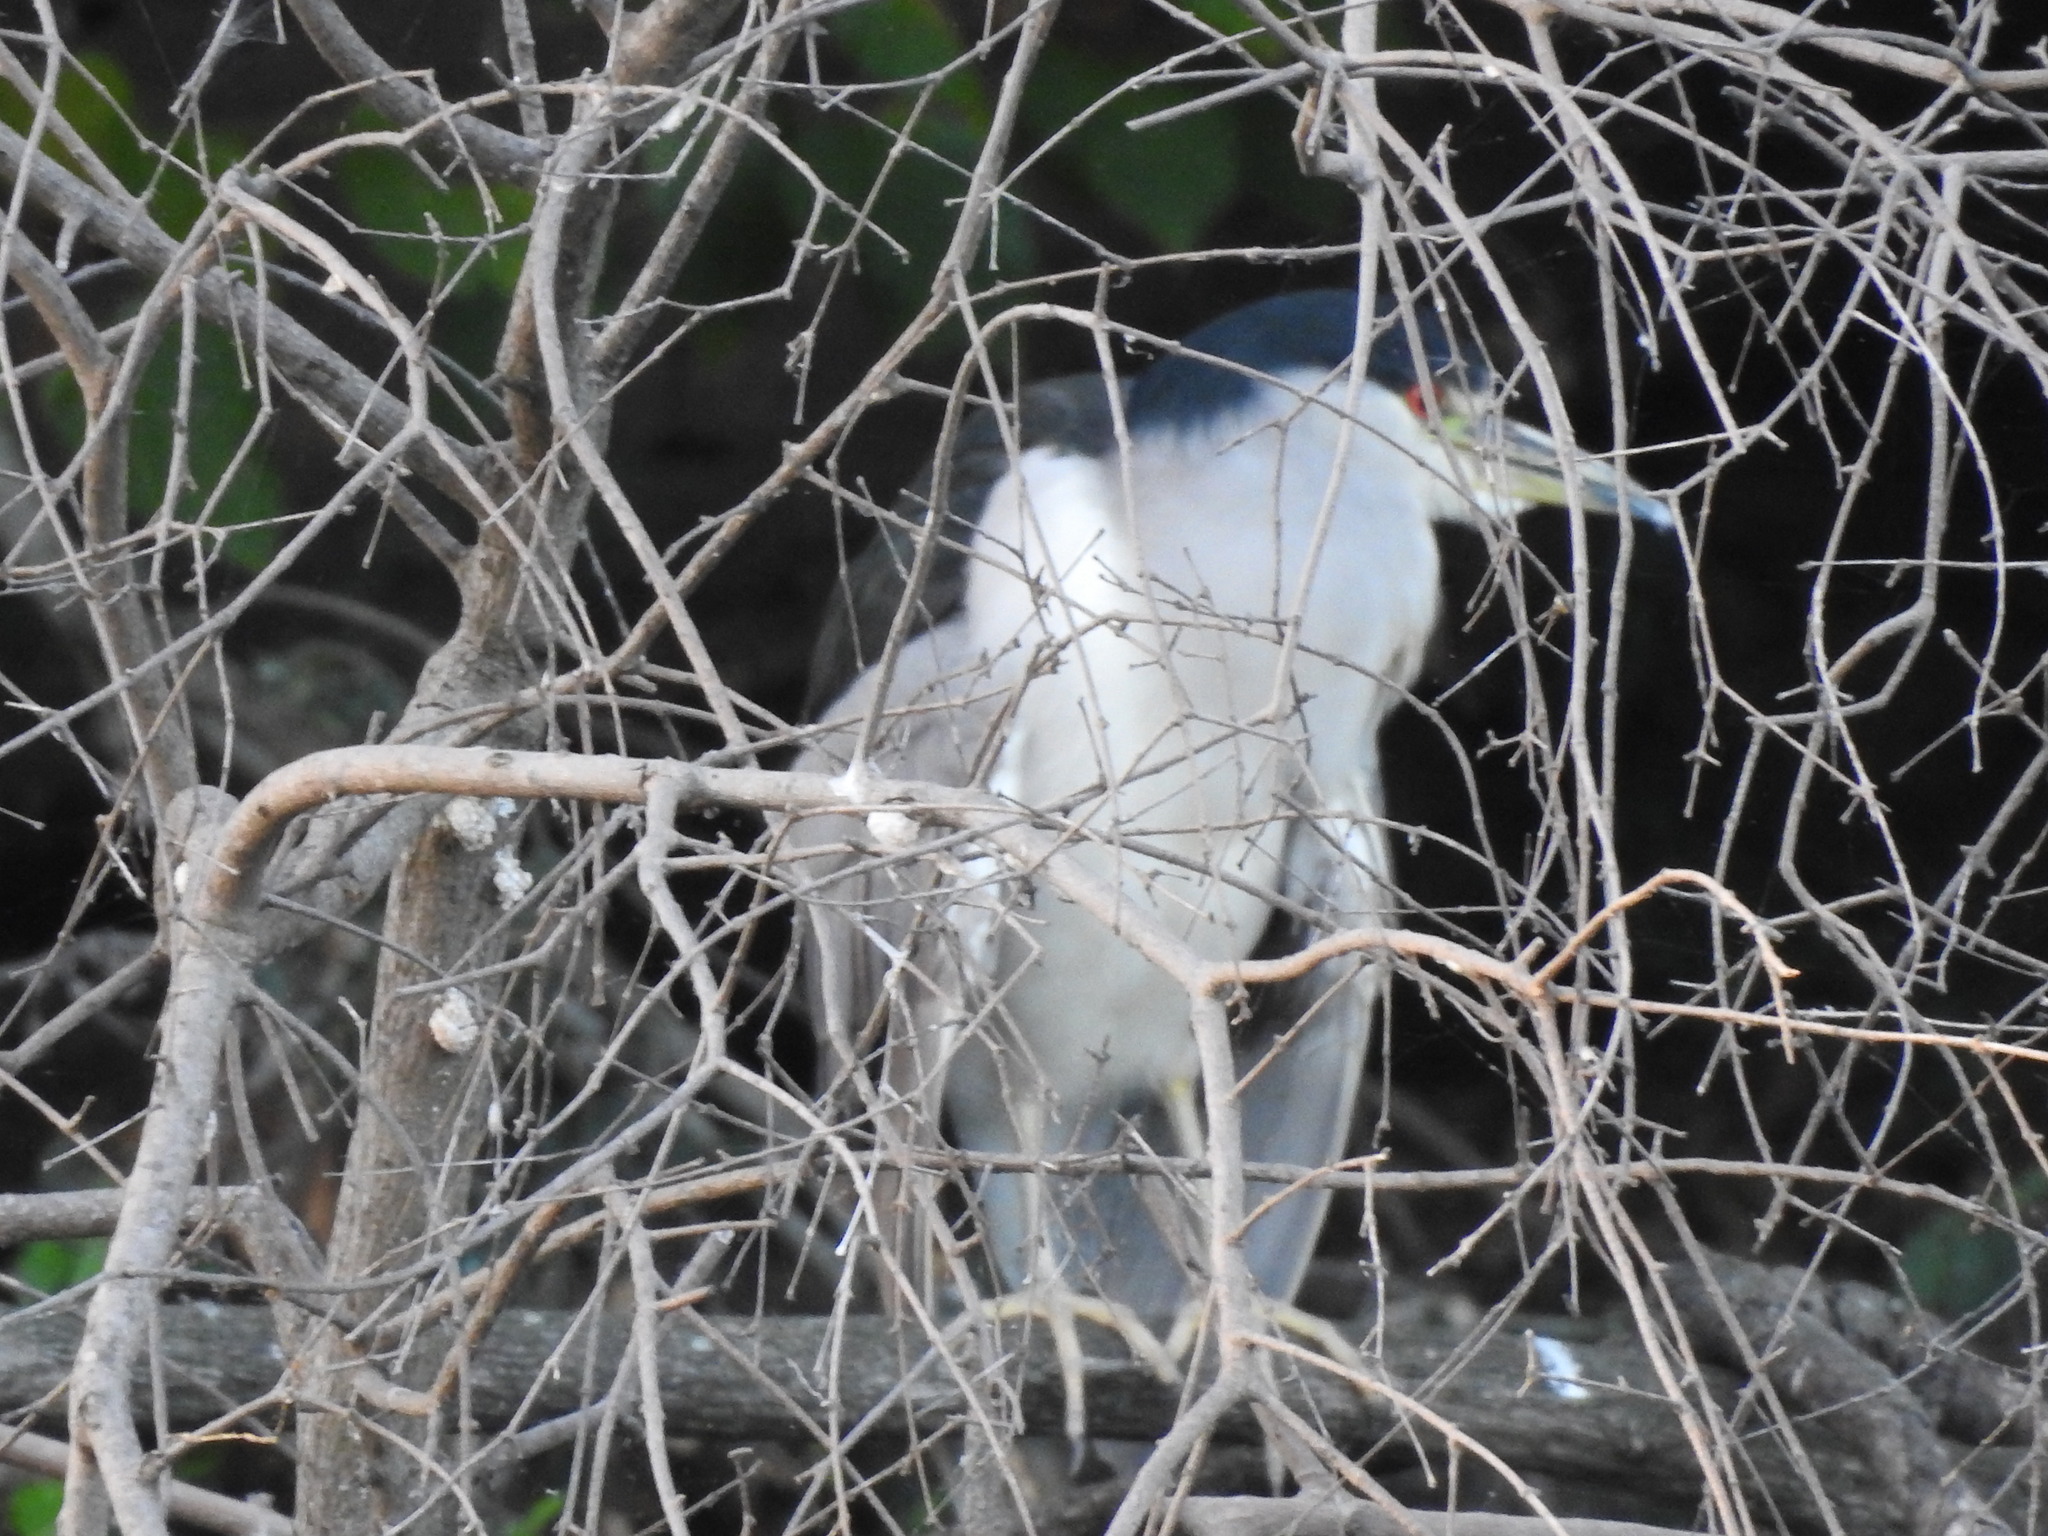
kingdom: Animalia
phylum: Chordata
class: Aves
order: Pelecaniformes
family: Ardeidae
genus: Nycticorax
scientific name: Nycticorax nycticorax
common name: Black-crowned night heron
